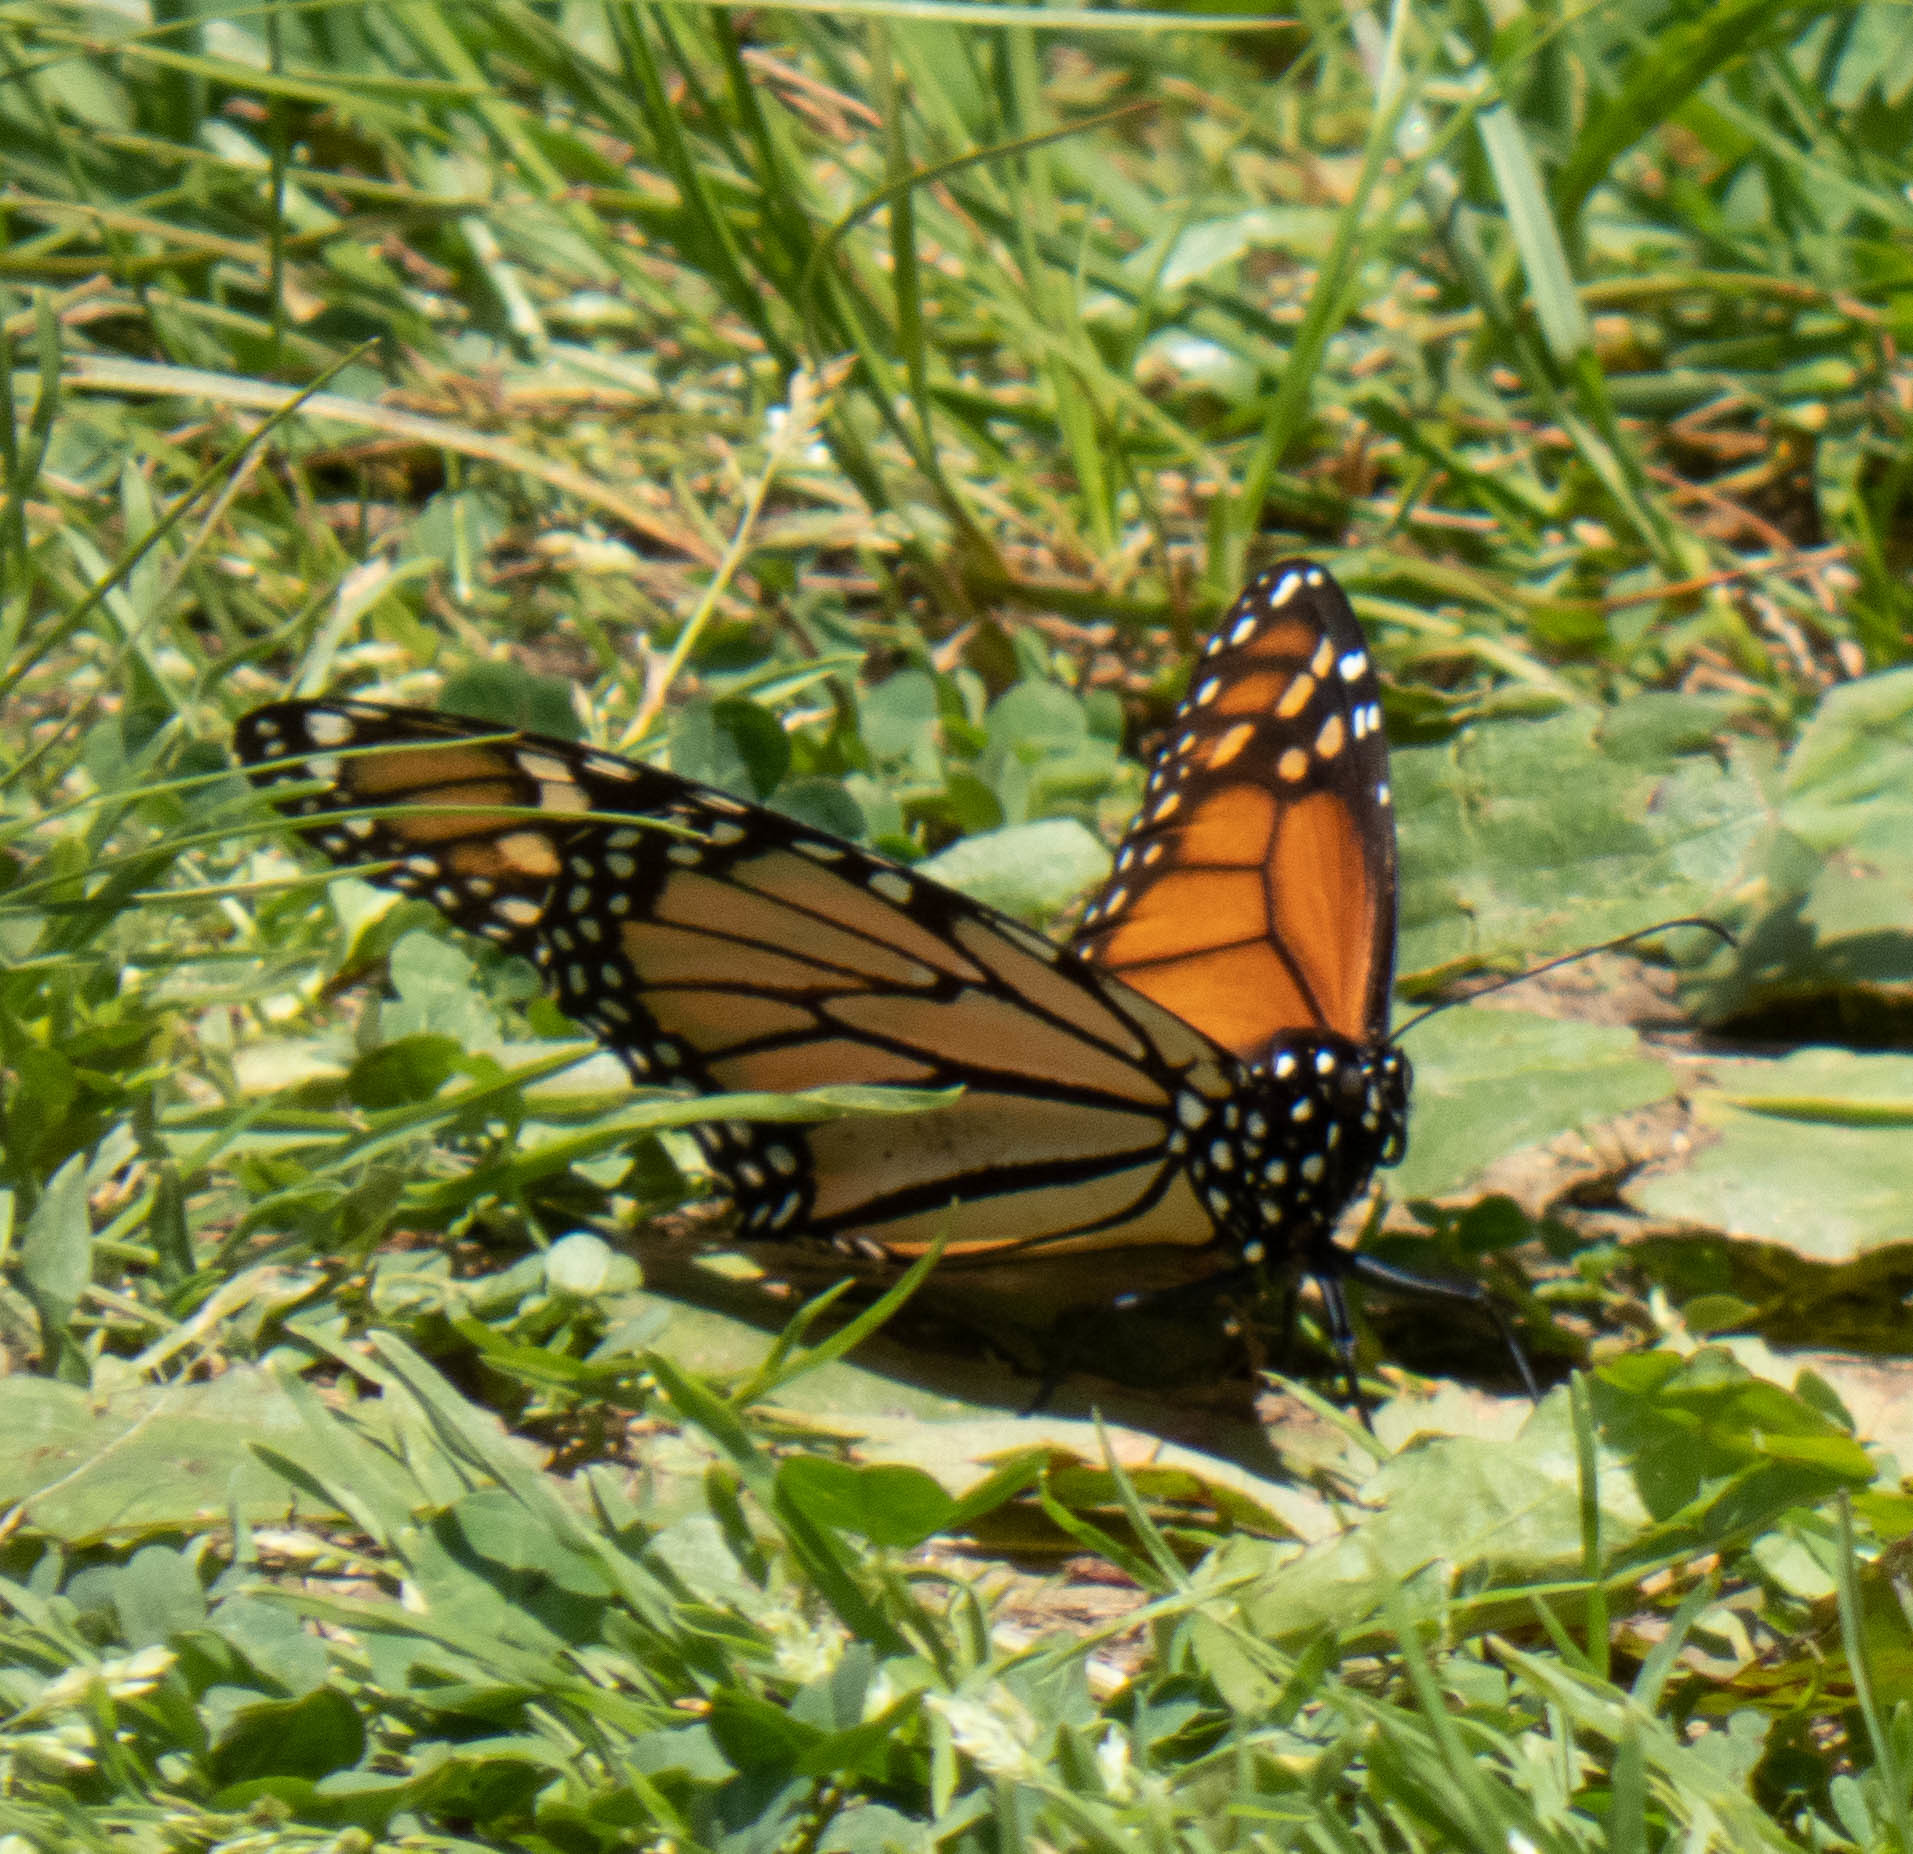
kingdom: Animalia
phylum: Arthropoda
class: Insecta
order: Lepidoptera
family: Nymphalidae
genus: Danaus
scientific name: Danaus plexippus
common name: Monarch
